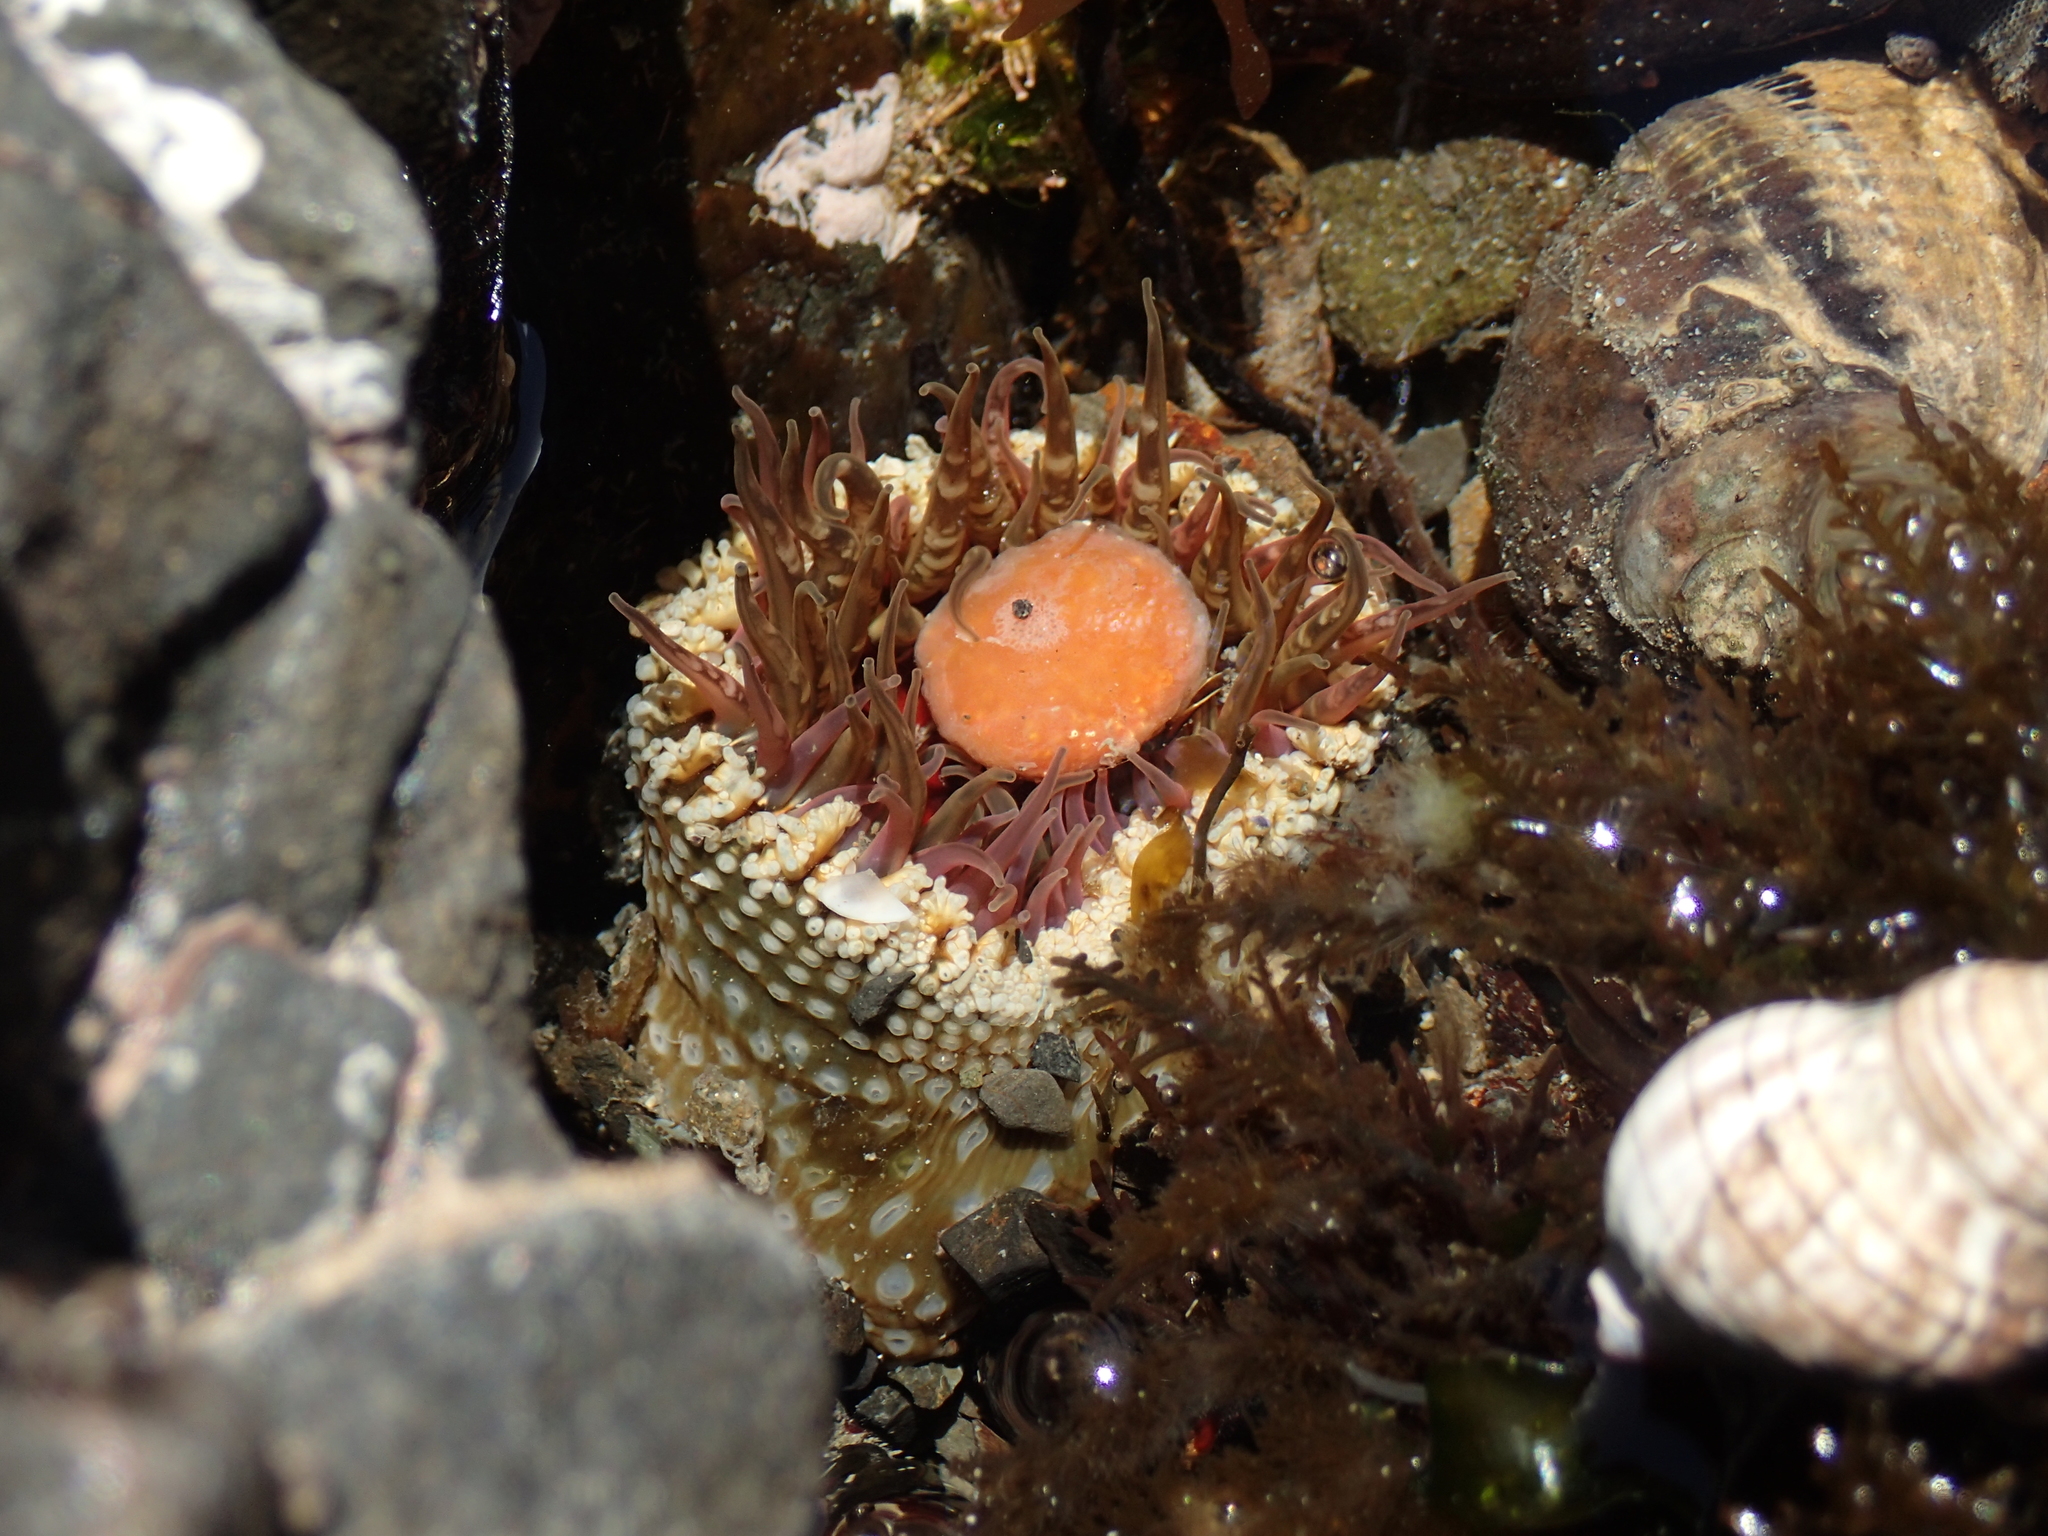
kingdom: Animalia
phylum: Cnidaria
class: Anthozoa
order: Actiniaria
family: Actiniidae
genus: Oulactis
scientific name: Oulactis muscosa
